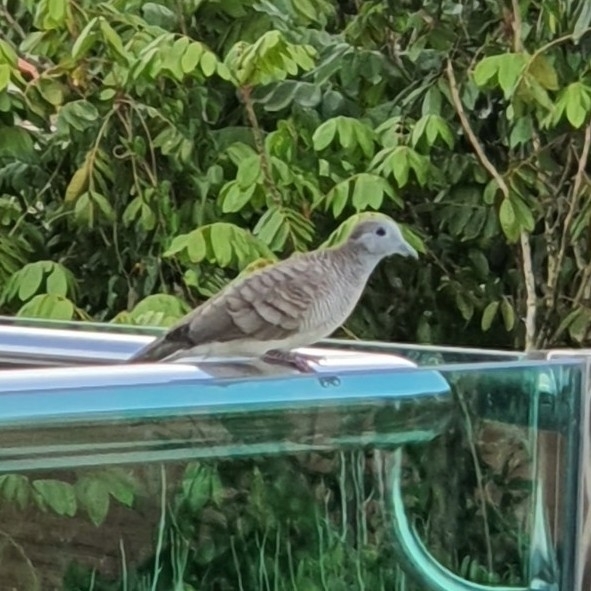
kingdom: Animalia
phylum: Chordata
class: Aves
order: Columbiformes
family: Columbidae
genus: Geopelia
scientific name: Geopelia striata
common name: Zebra dove
